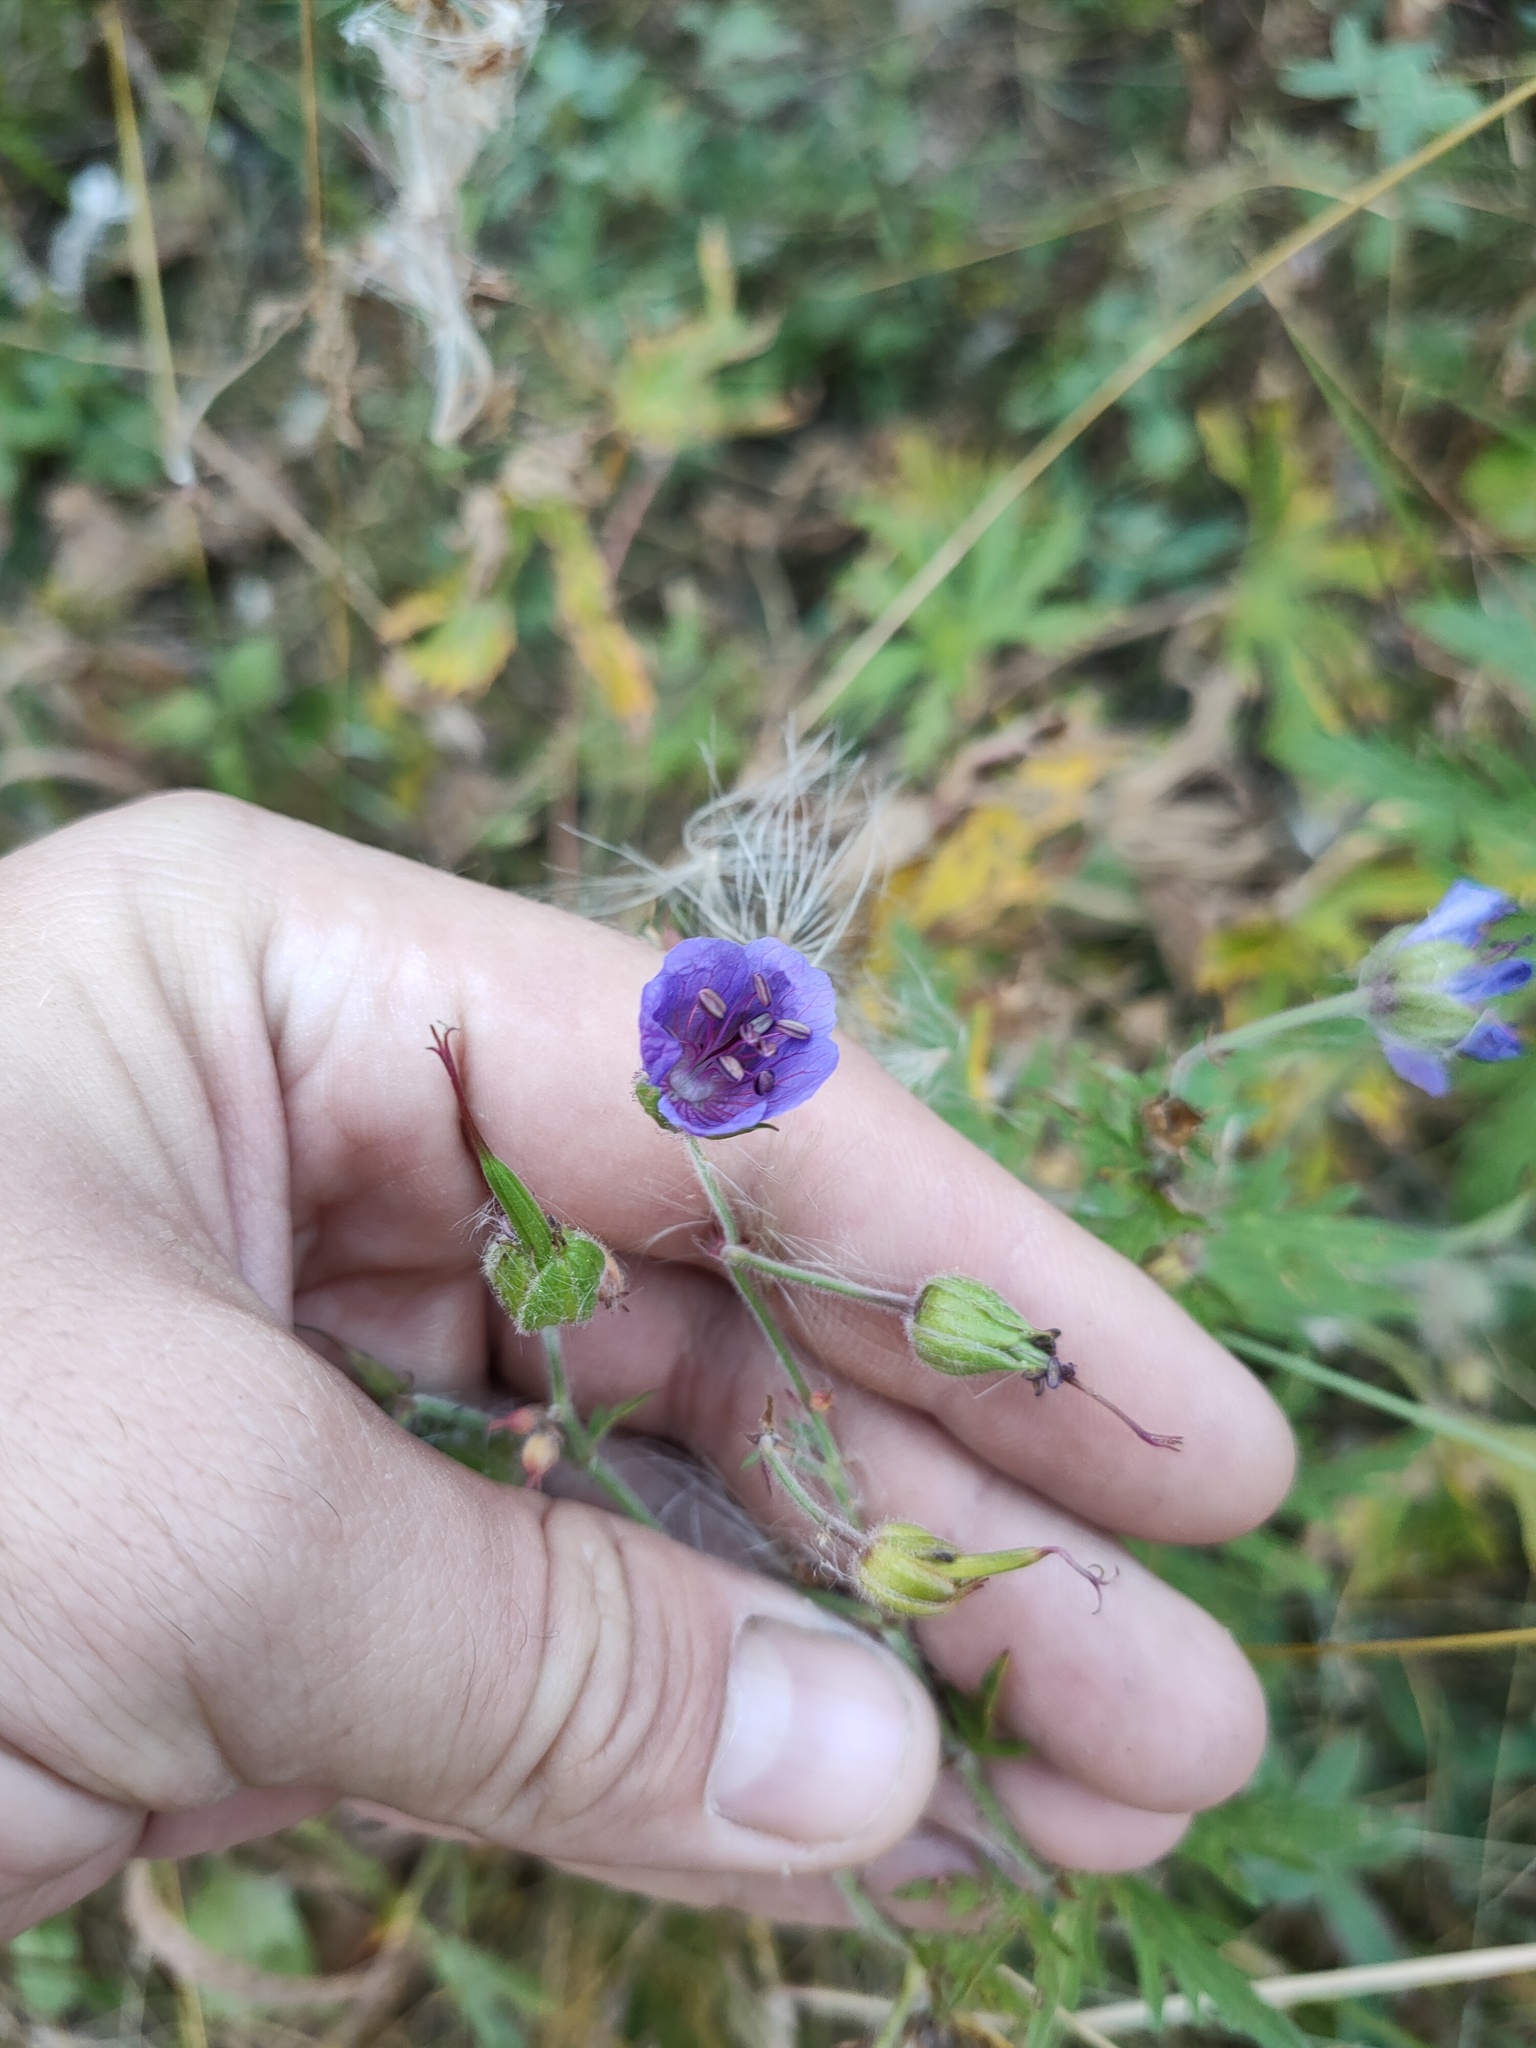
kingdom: Plantae
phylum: Tracheophyta
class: Magnoliopsida
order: Geraniales
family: Geraniaceae
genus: Geranium
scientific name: Geranium pratense
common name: Meadow crane's-bill
